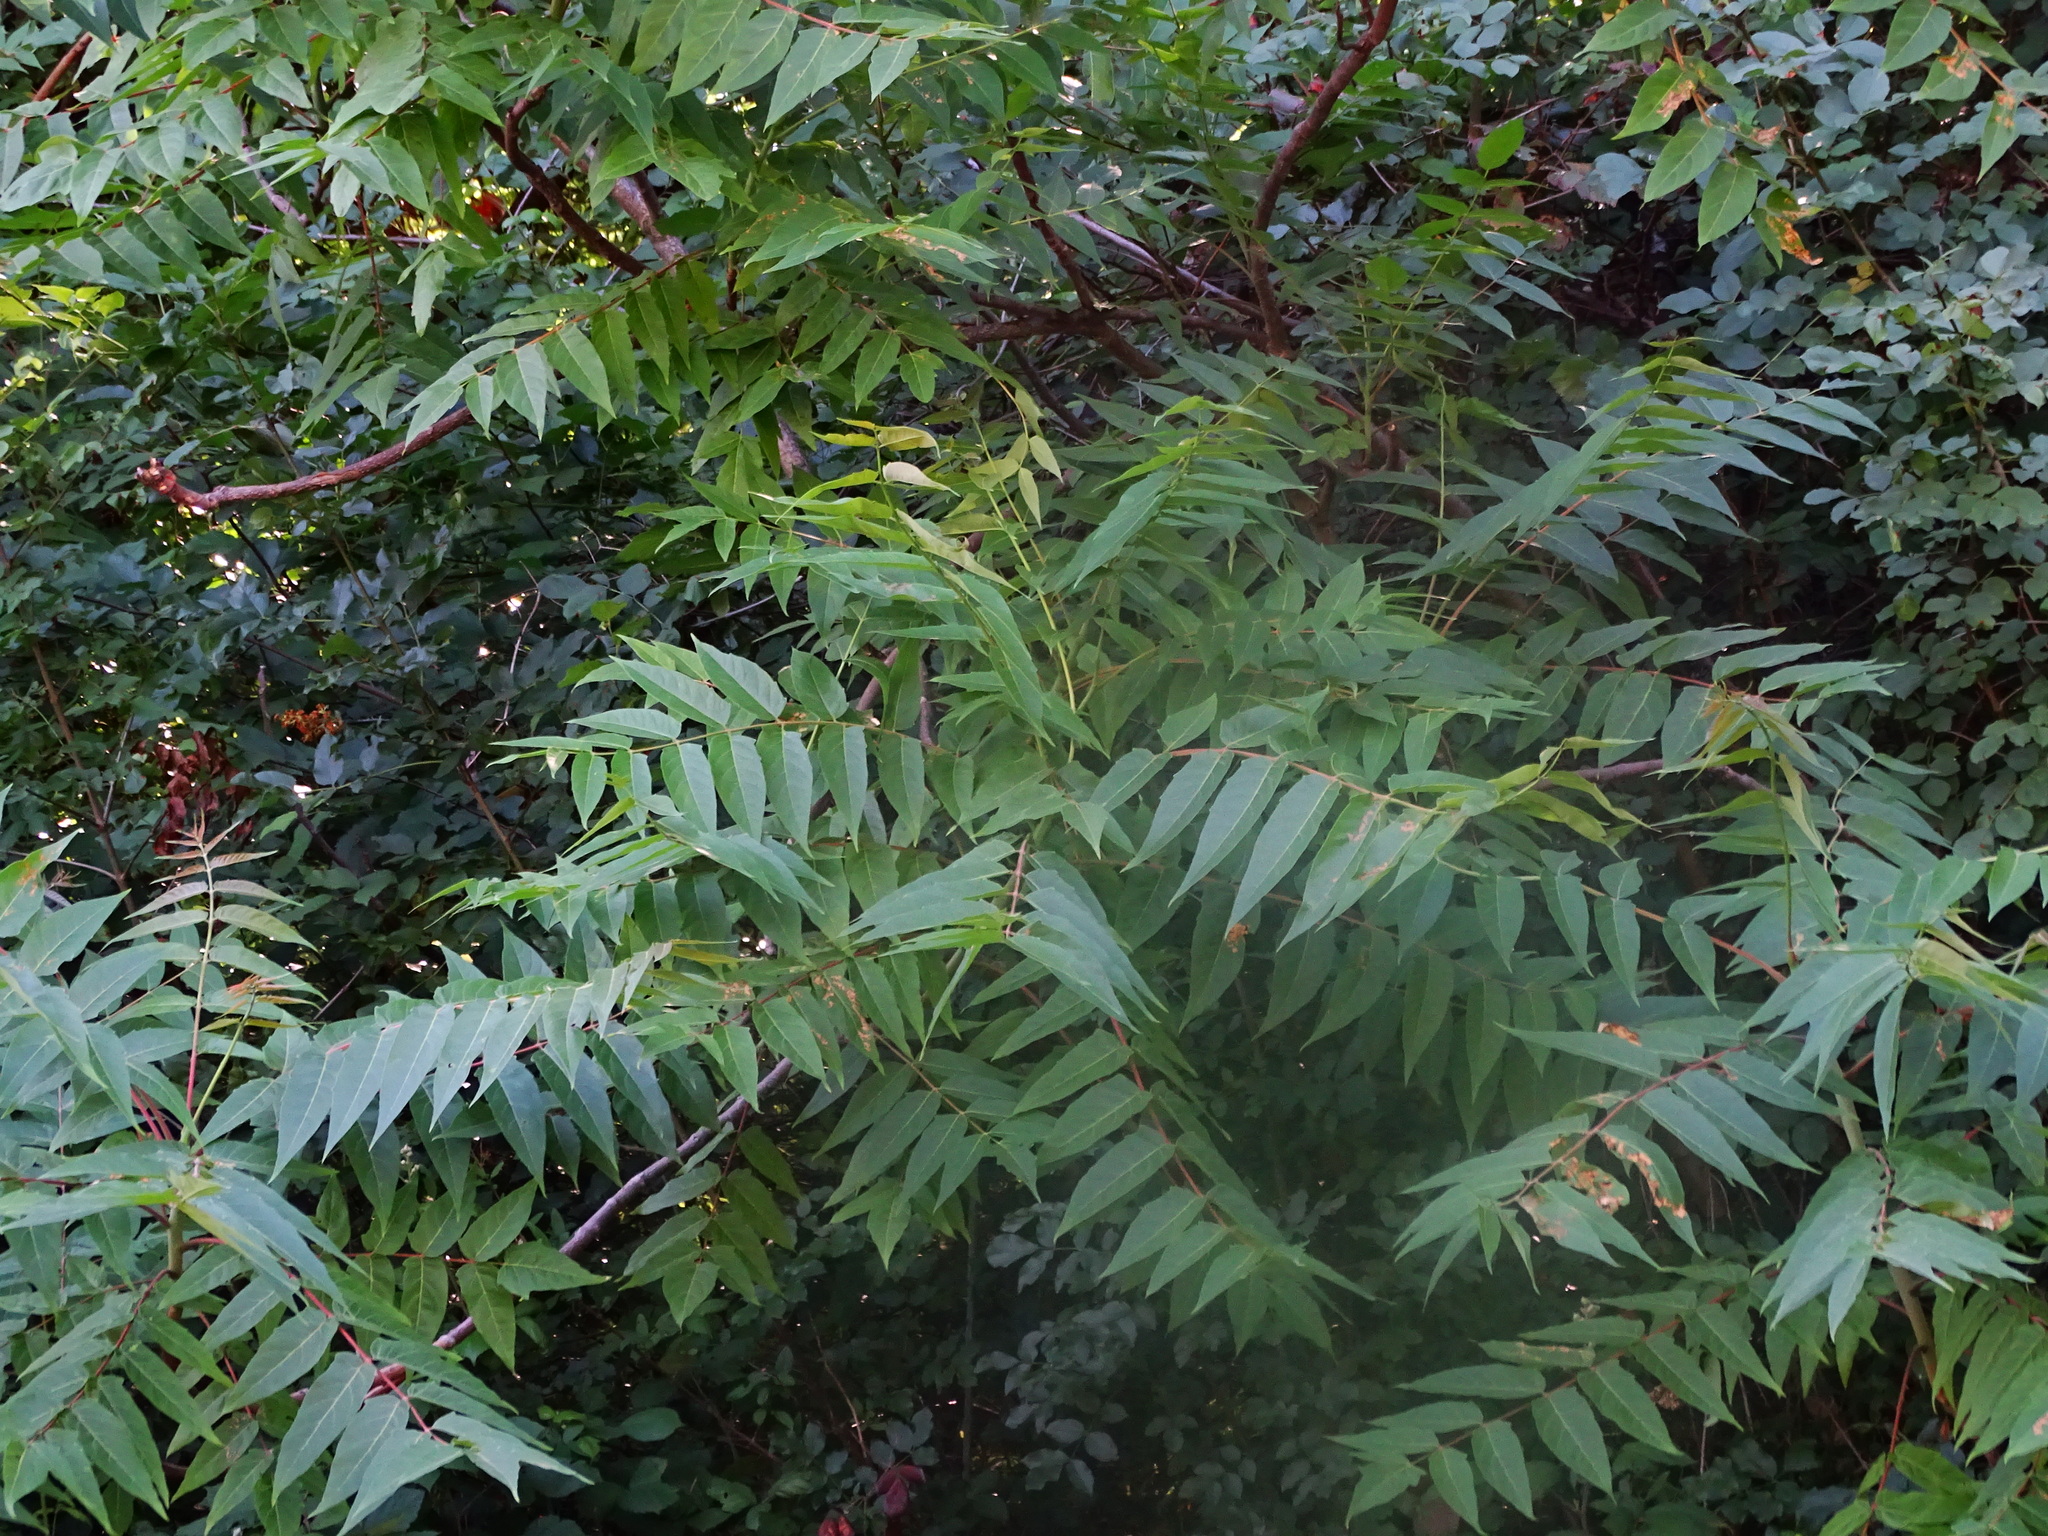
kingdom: Plantae
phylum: Tracheophyta
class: Magnoliopsida
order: Sapindales
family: Simaroubaceae
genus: Ailanthus
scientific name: Ailanthus altissima
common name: Tree-of-heaven
